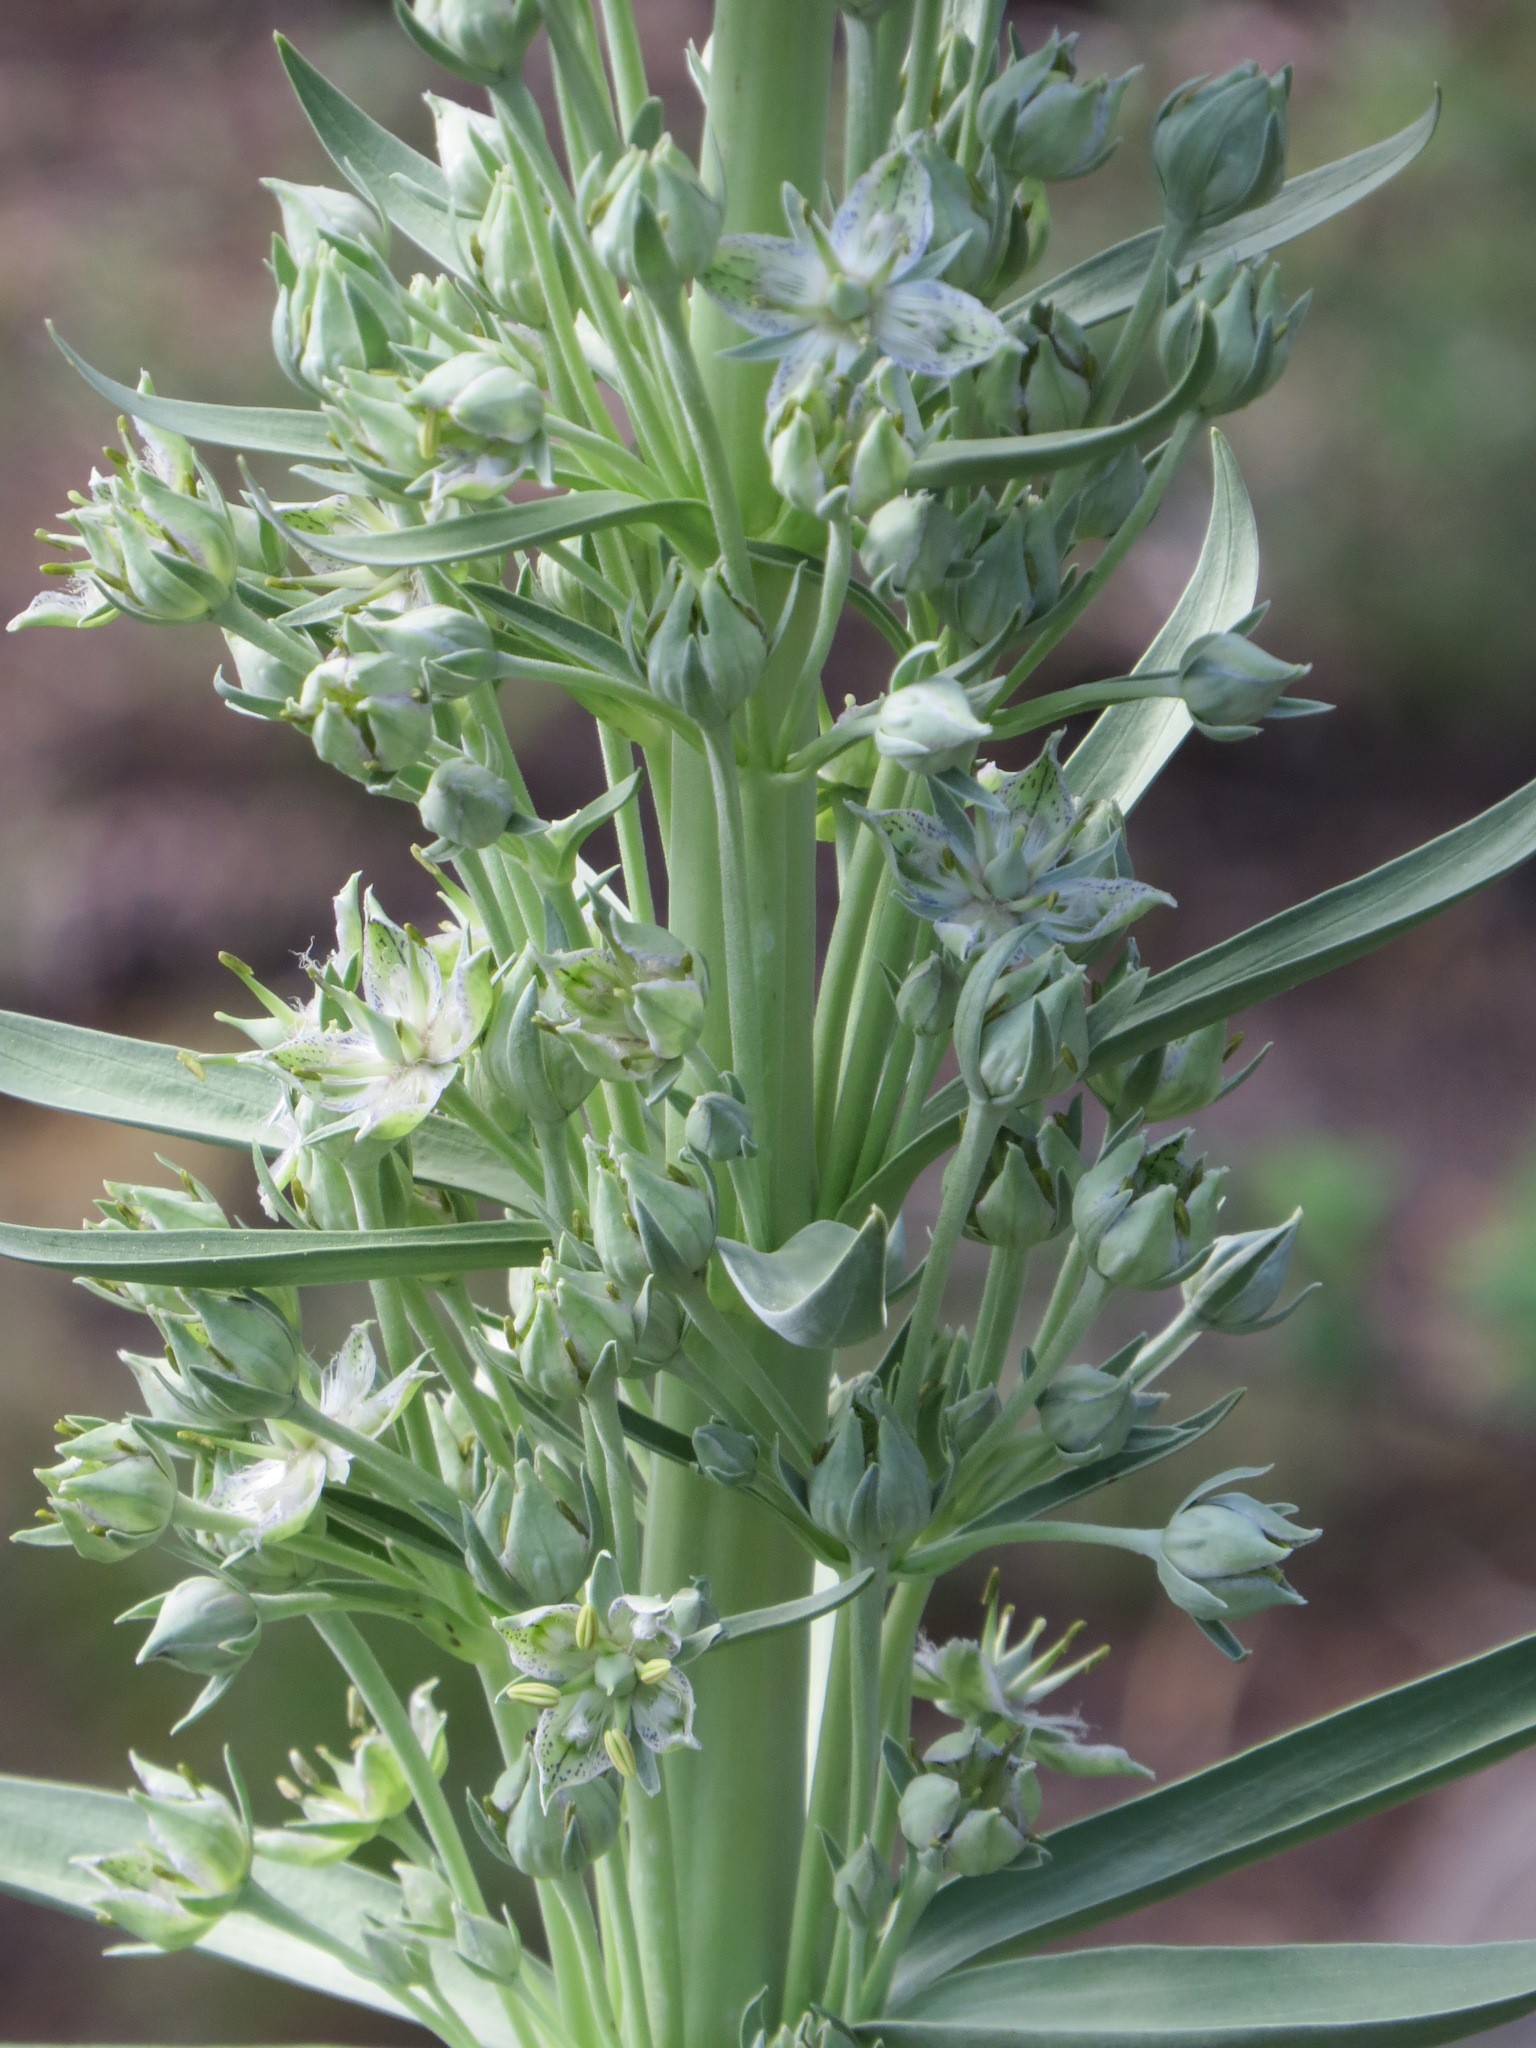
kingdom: Plantae
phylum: Tracheophyta
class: Magnoliopsida
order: Gentianales
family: Gentianaceae
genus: Frasera
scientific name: Frasera speciosa
